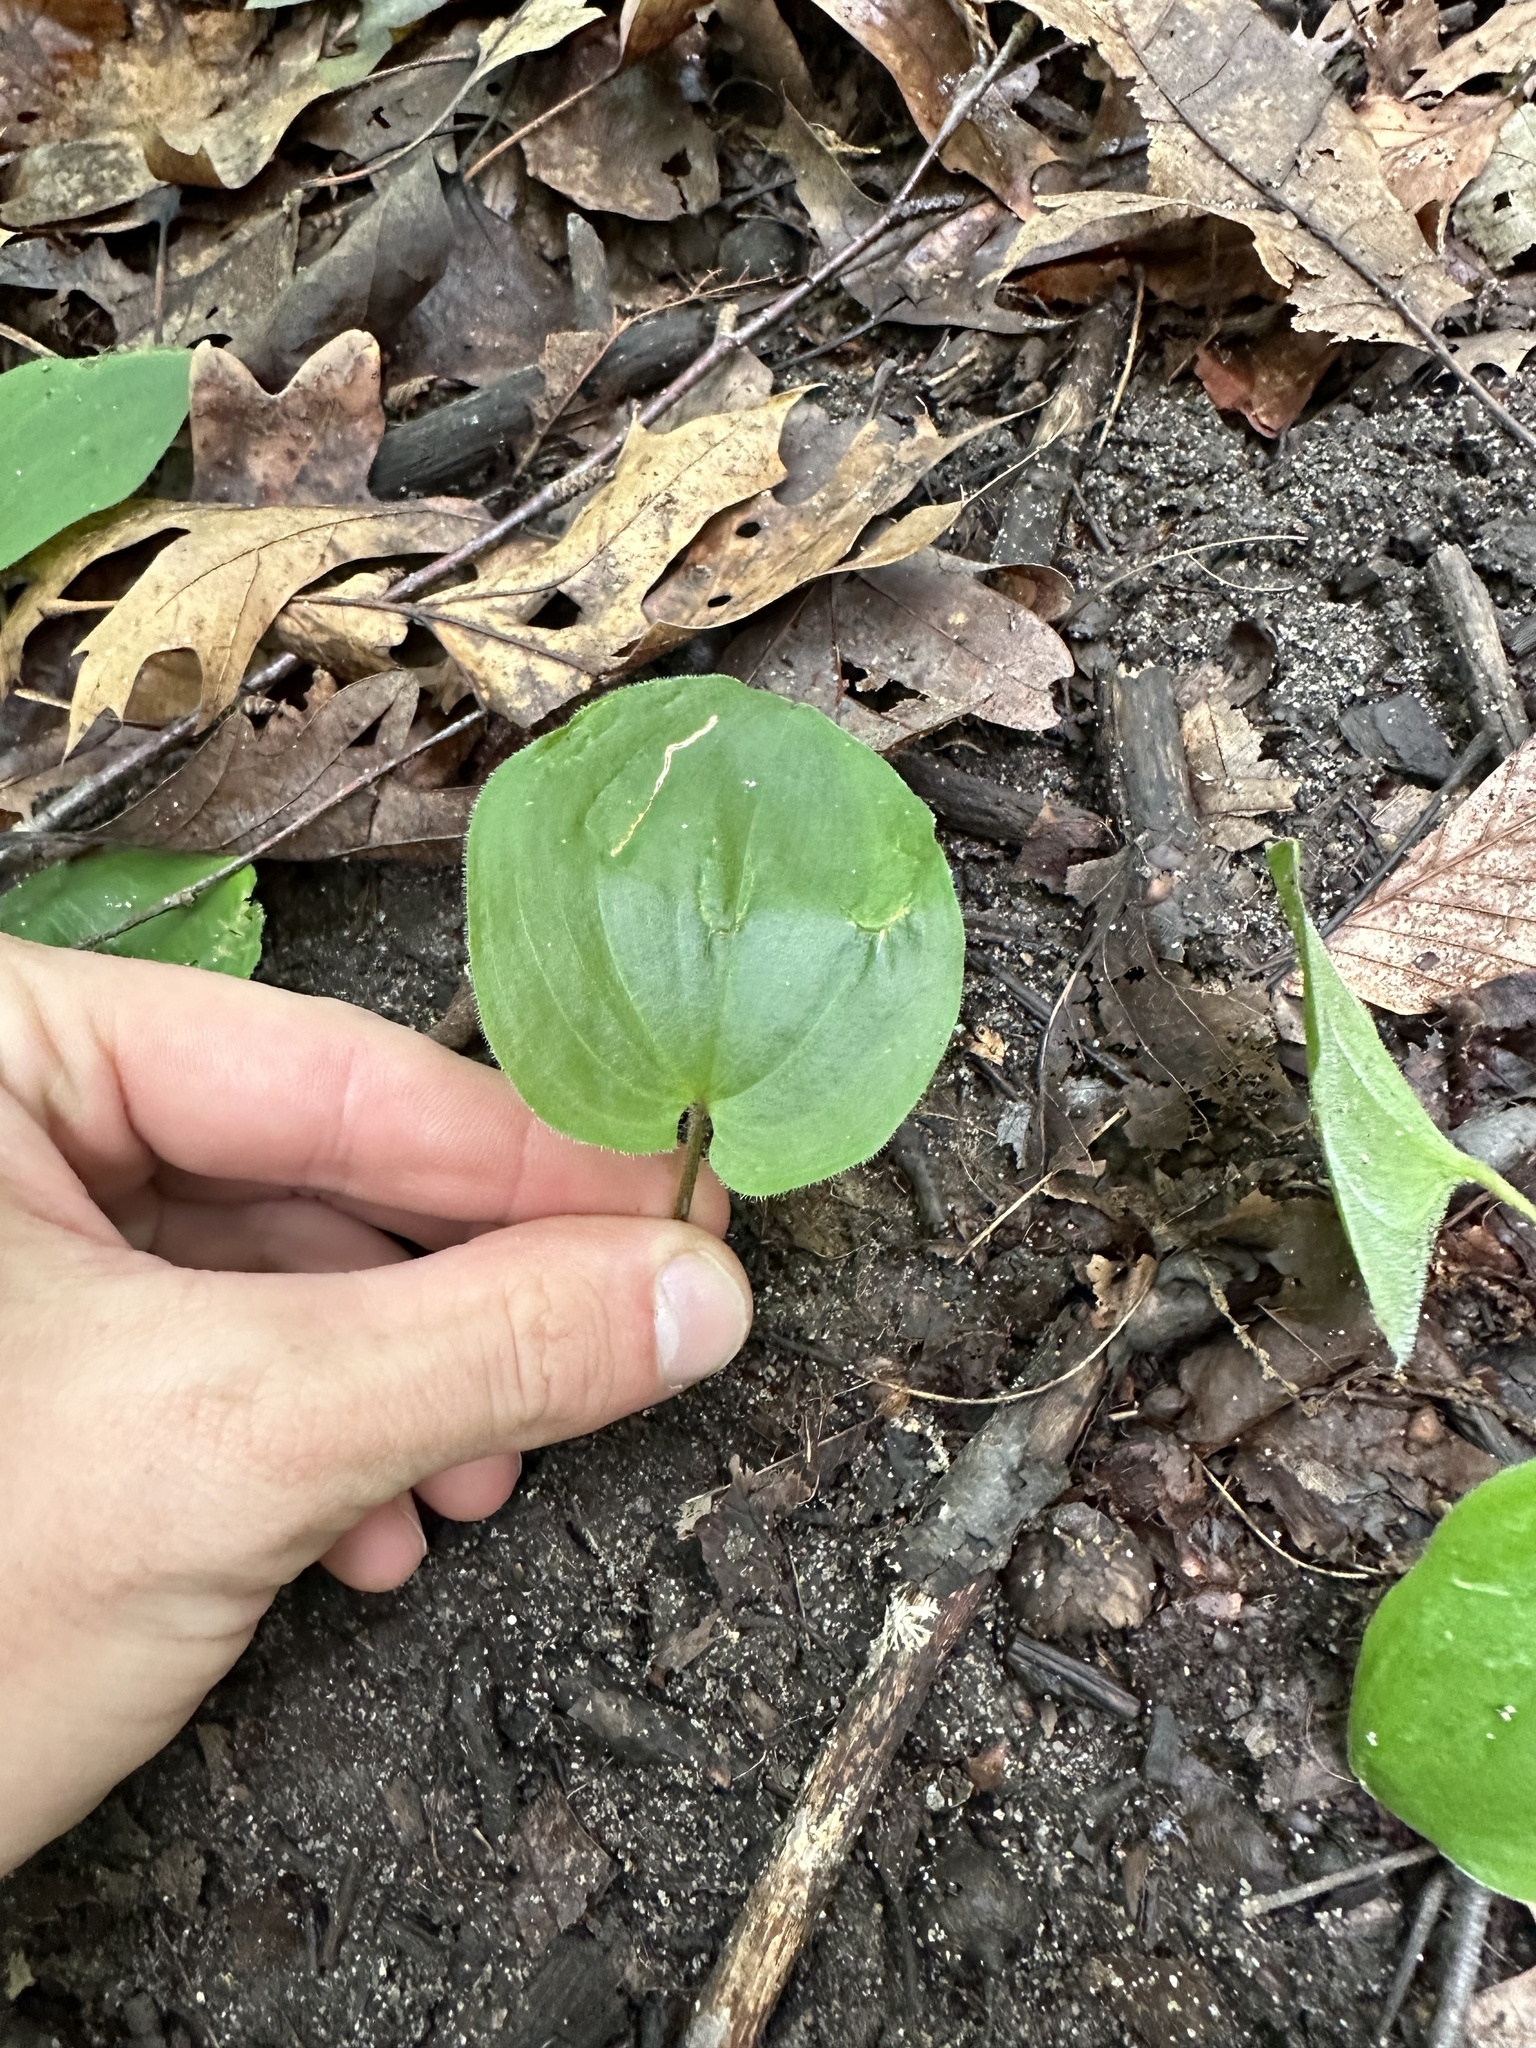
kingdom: Plantae
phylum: Tracheophyta
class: Liliopsida
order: Asparagales
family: Asparagaceae
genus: Maianthemum
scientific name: Maianthemum canadense
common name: False lily-of-the-valley
